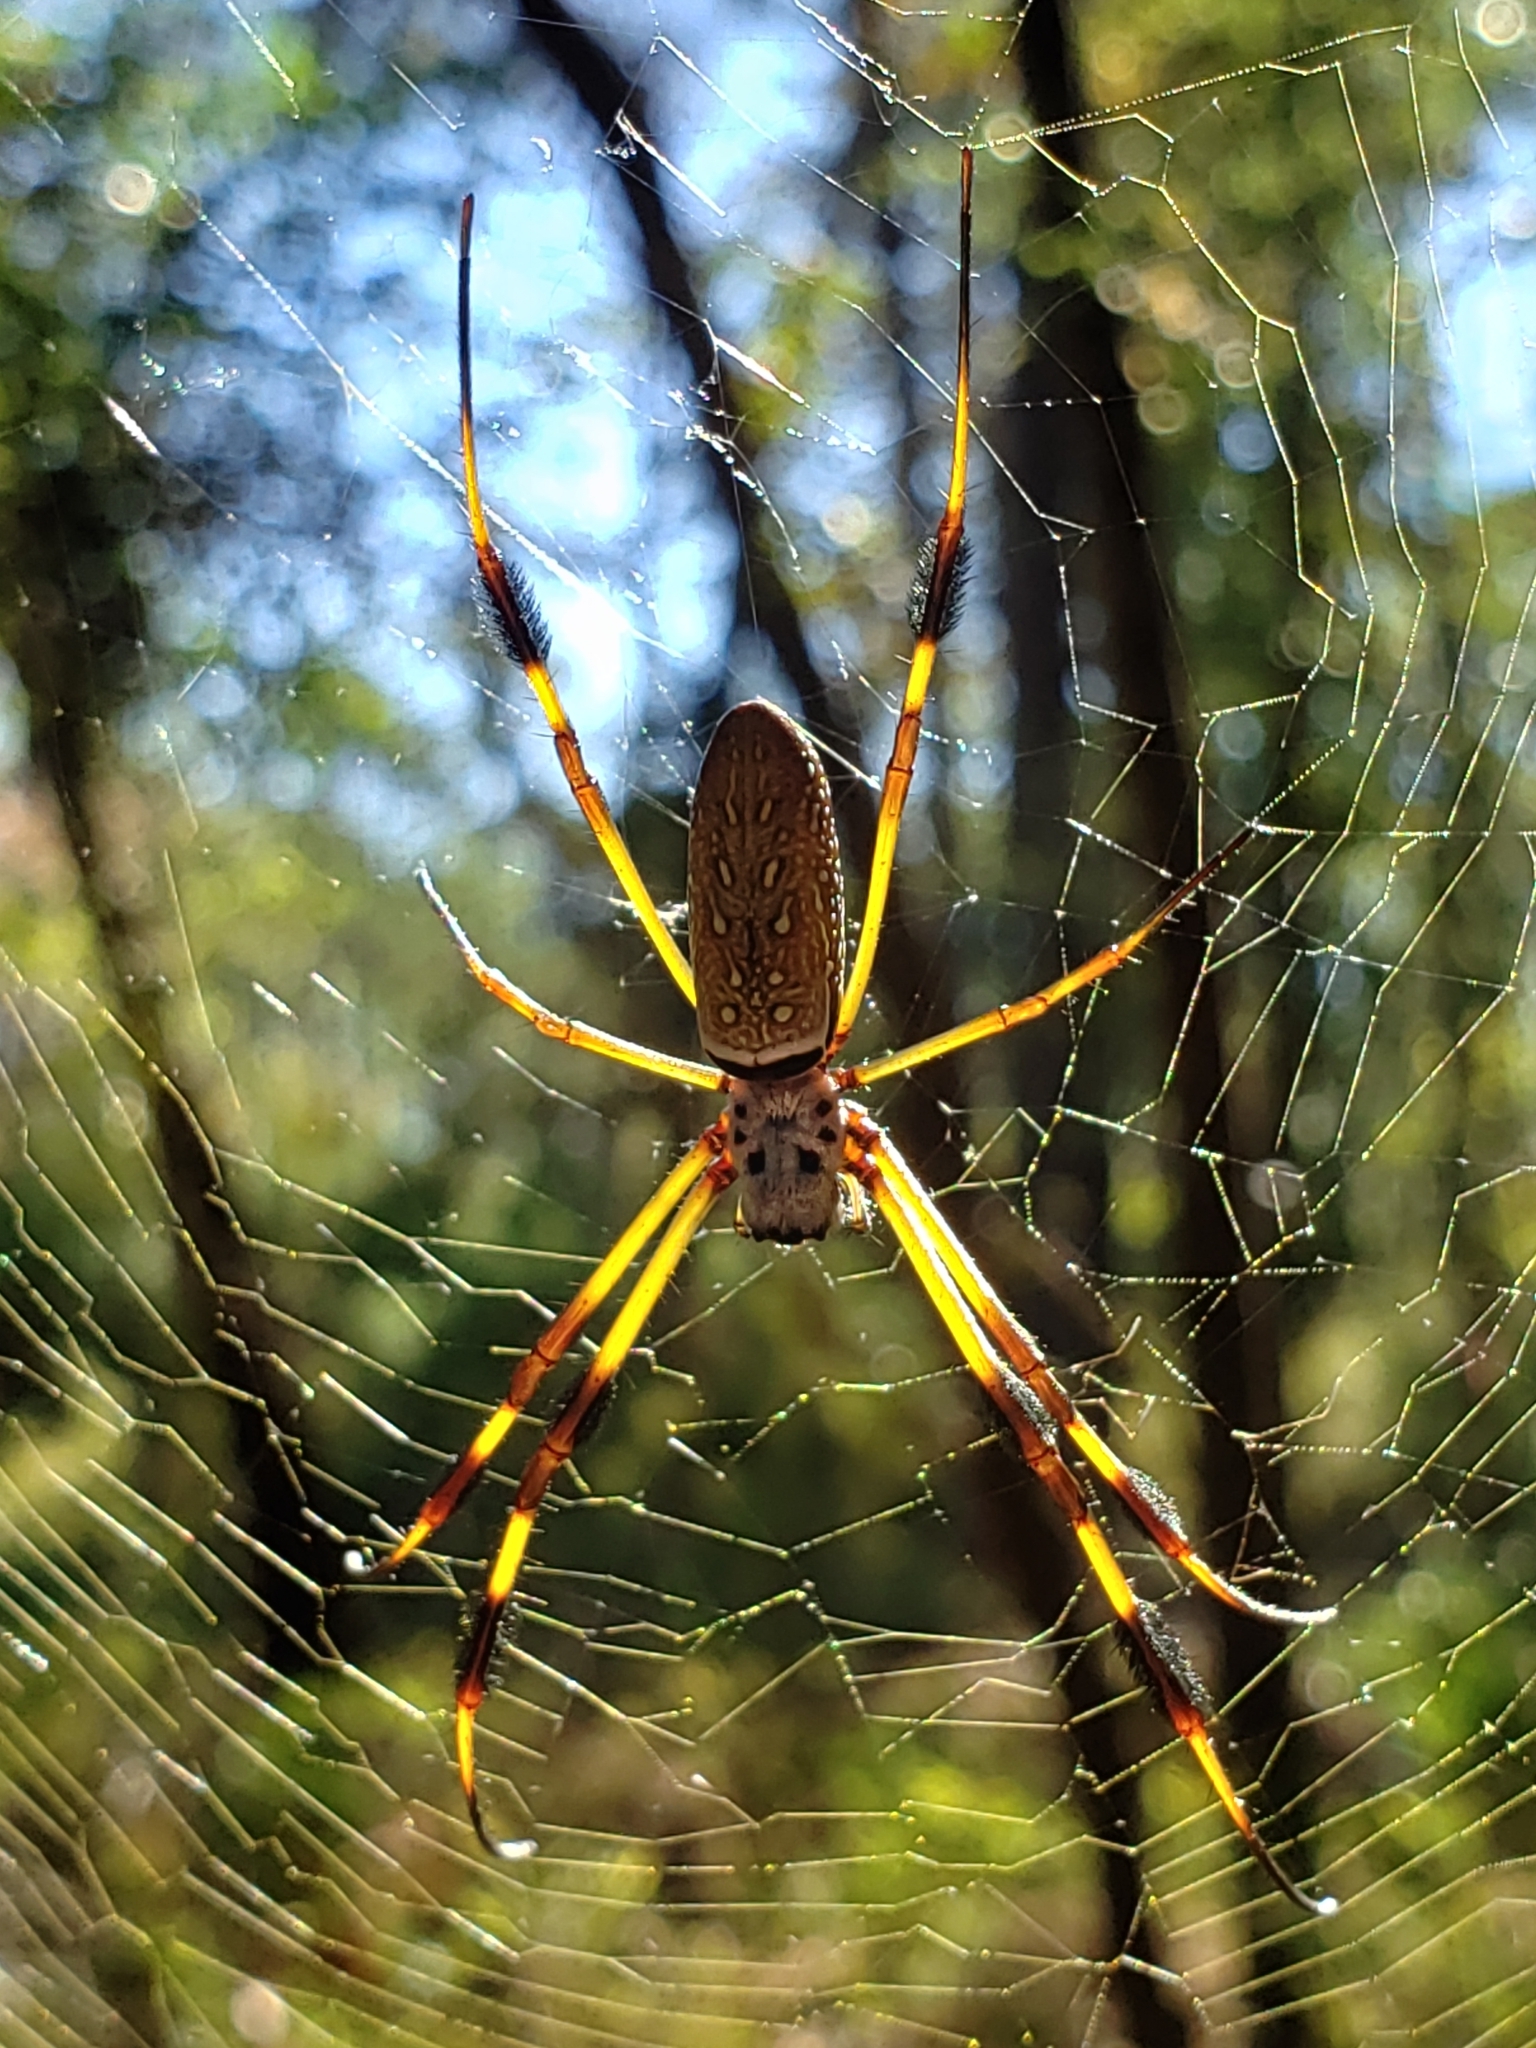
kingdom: Animalia
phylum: Arthropoda
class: Arachnida
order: Araneae
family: Araneidae
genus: Trichonephila
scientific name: Trichonephila clavipes
